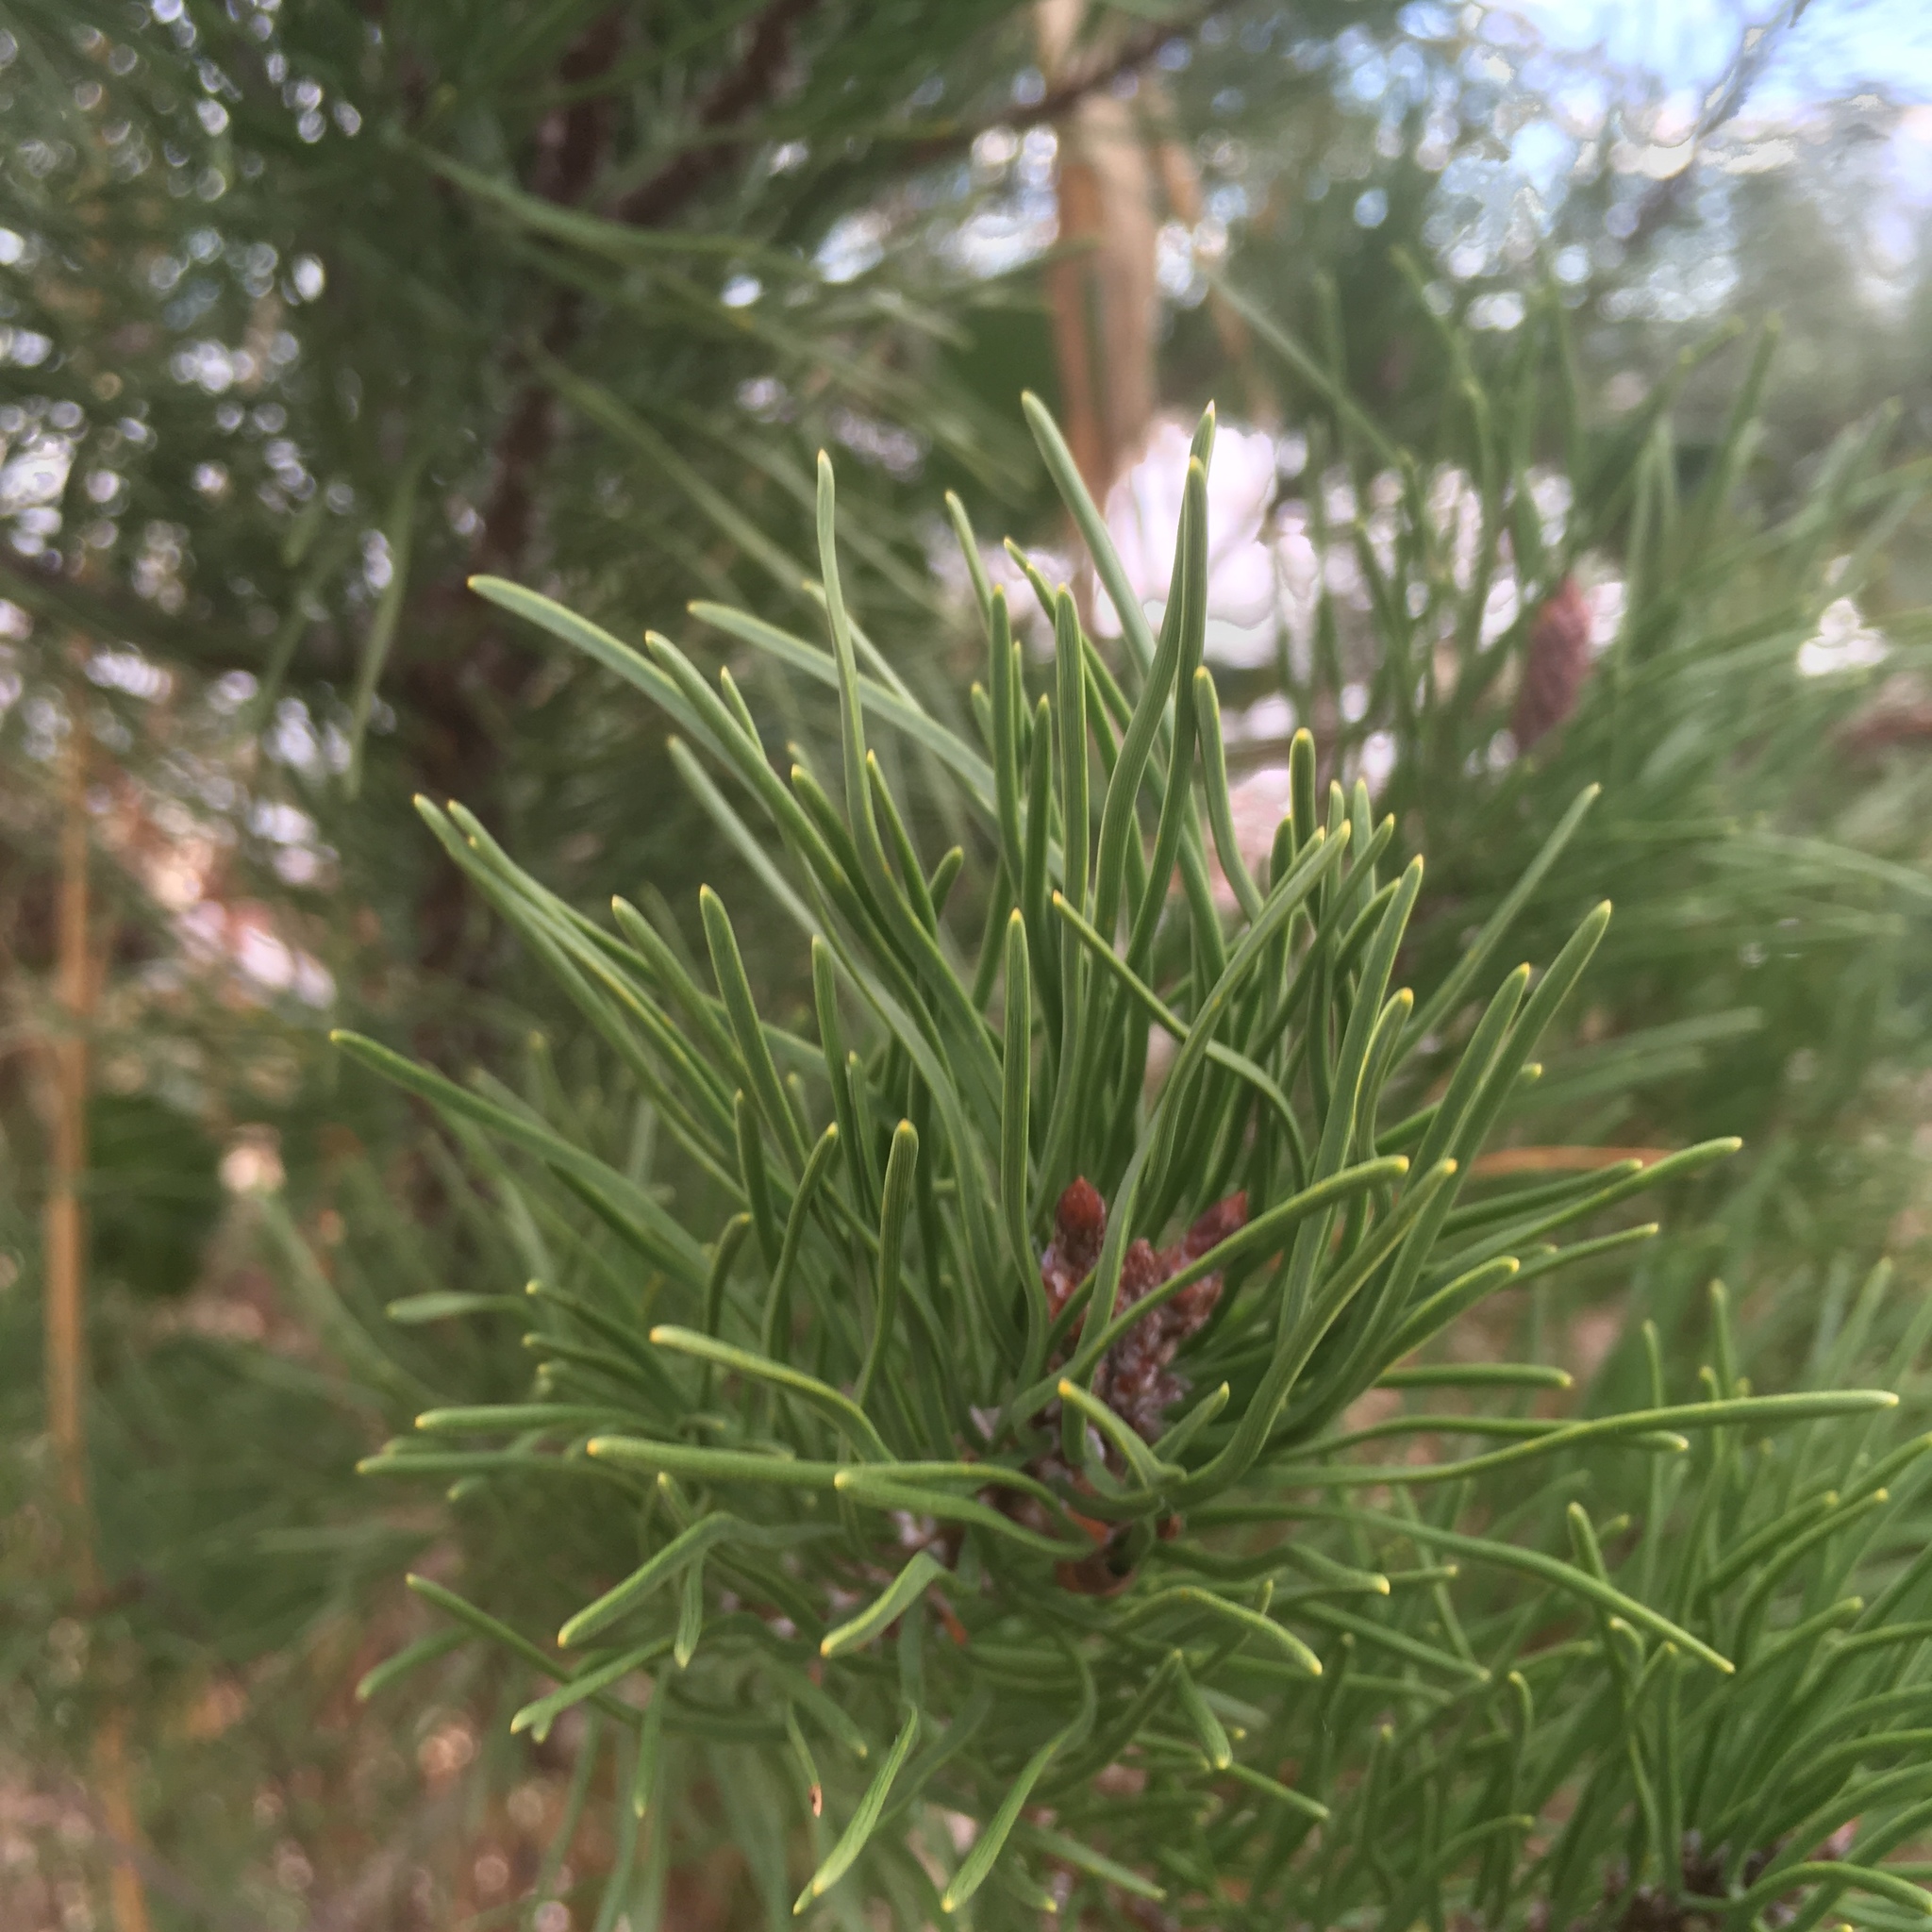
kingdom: Plantae
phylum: Tracheophyta
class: Pinopsida
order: Pinales
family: Pinaceae
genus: Pinus
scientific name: Pinus contorta
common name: Lodgepole pine
